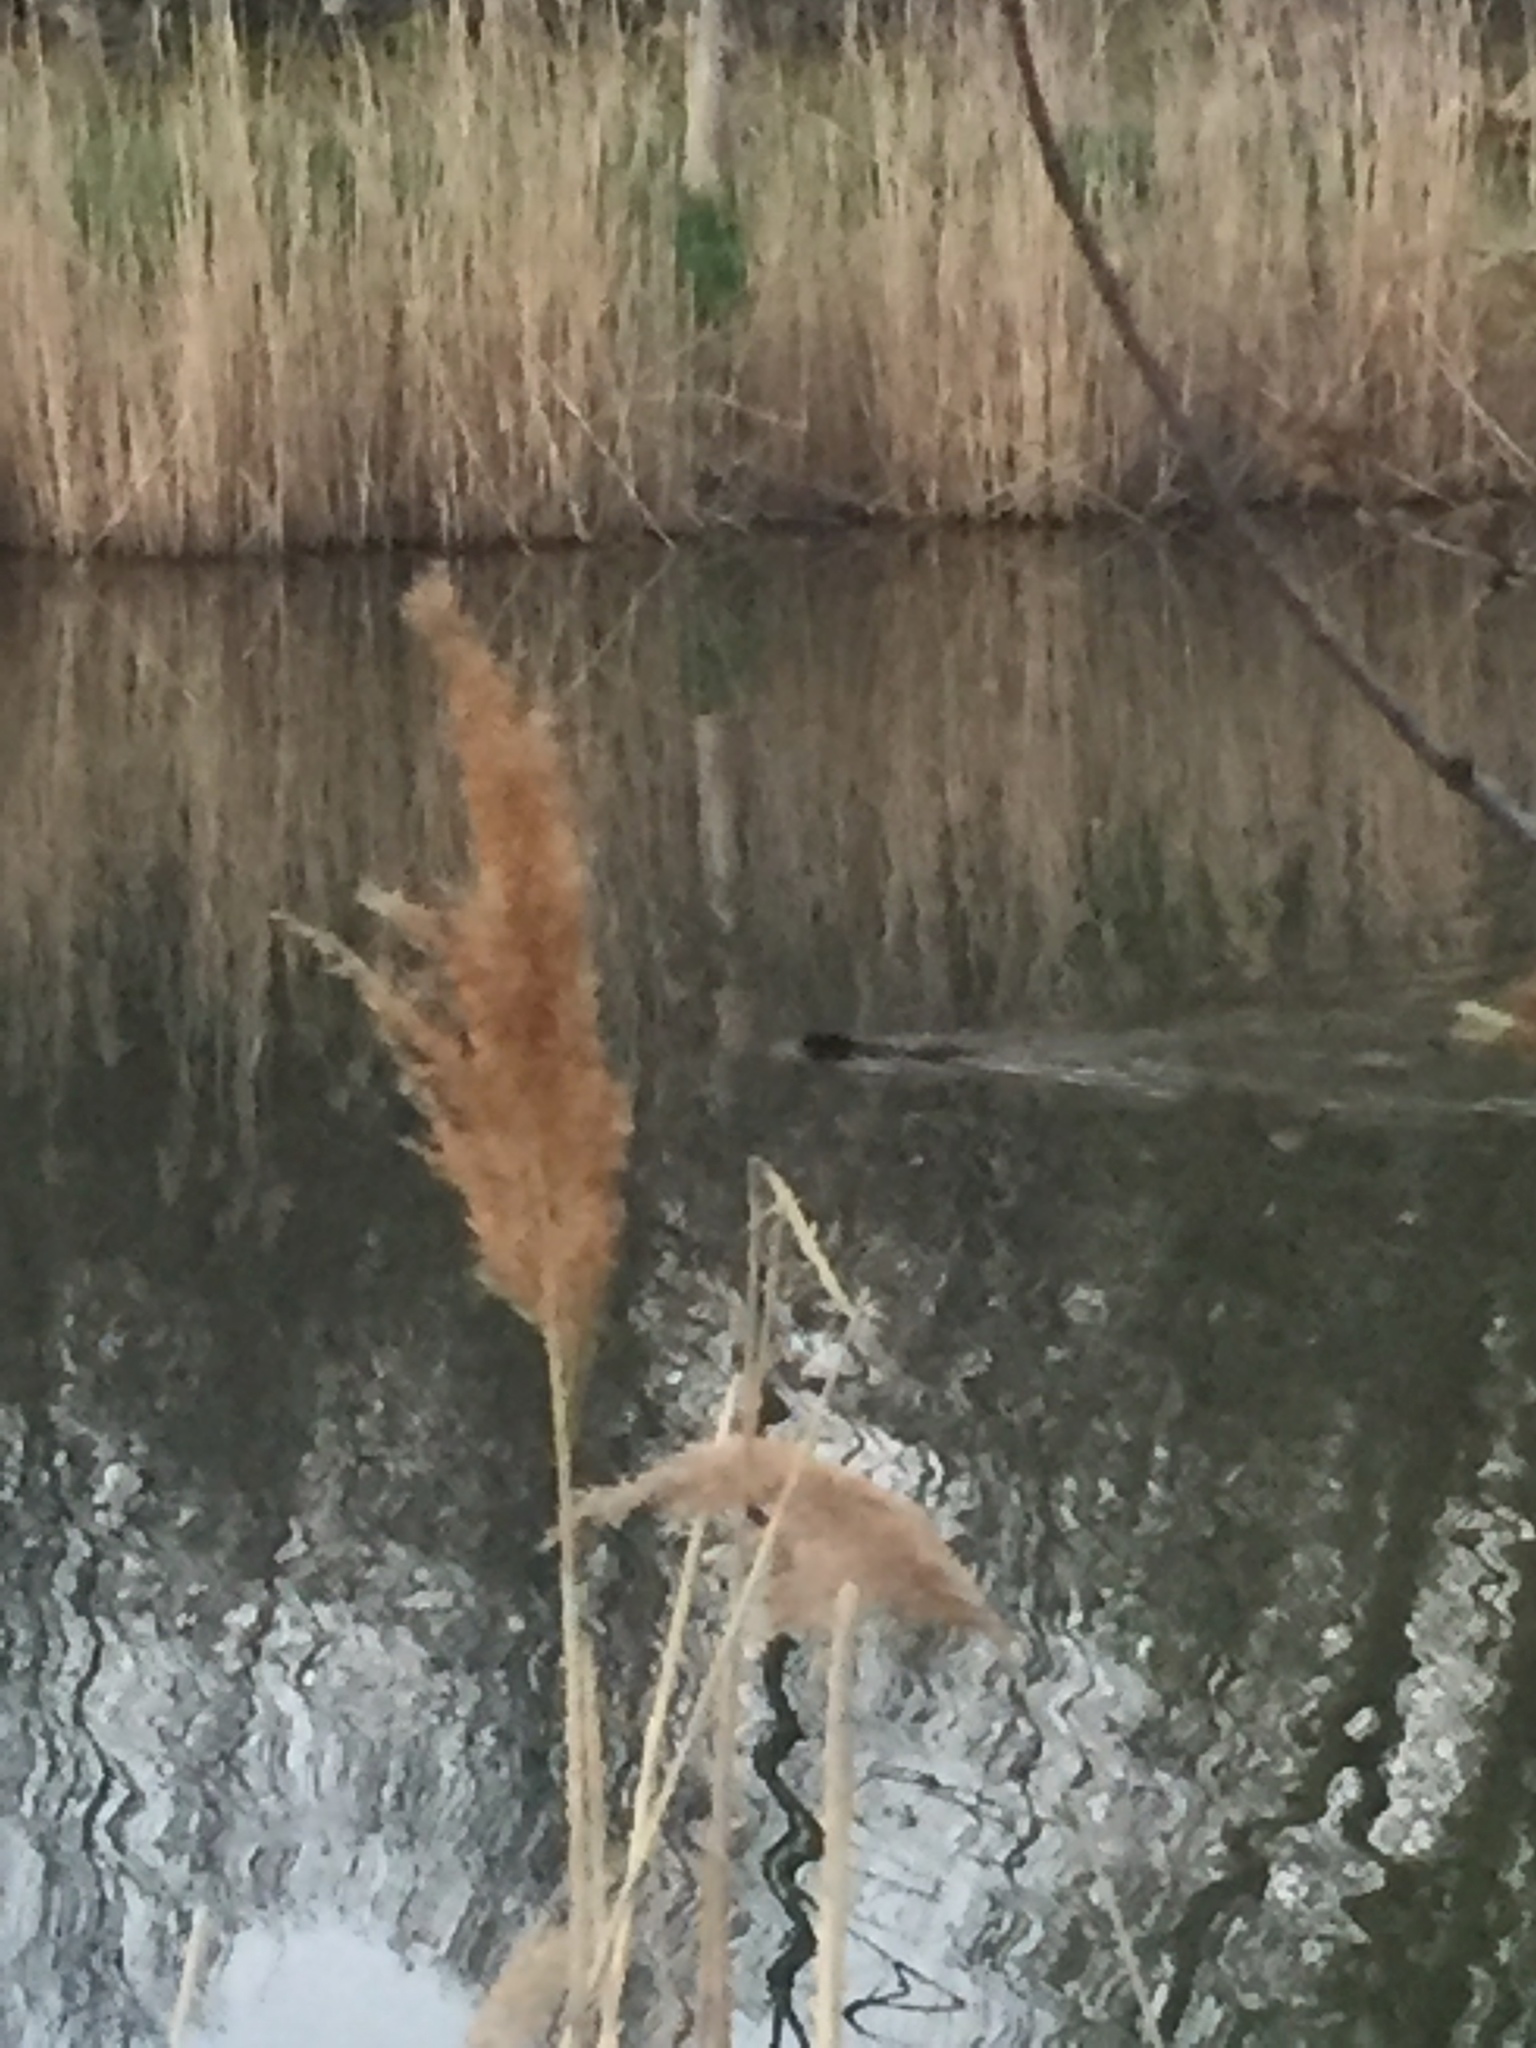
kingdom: Animalia
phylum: Chordata
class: Mammalia
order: Rodentia
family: Castoridae
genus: Castor
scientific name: Castor canadensis
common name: American beaver
